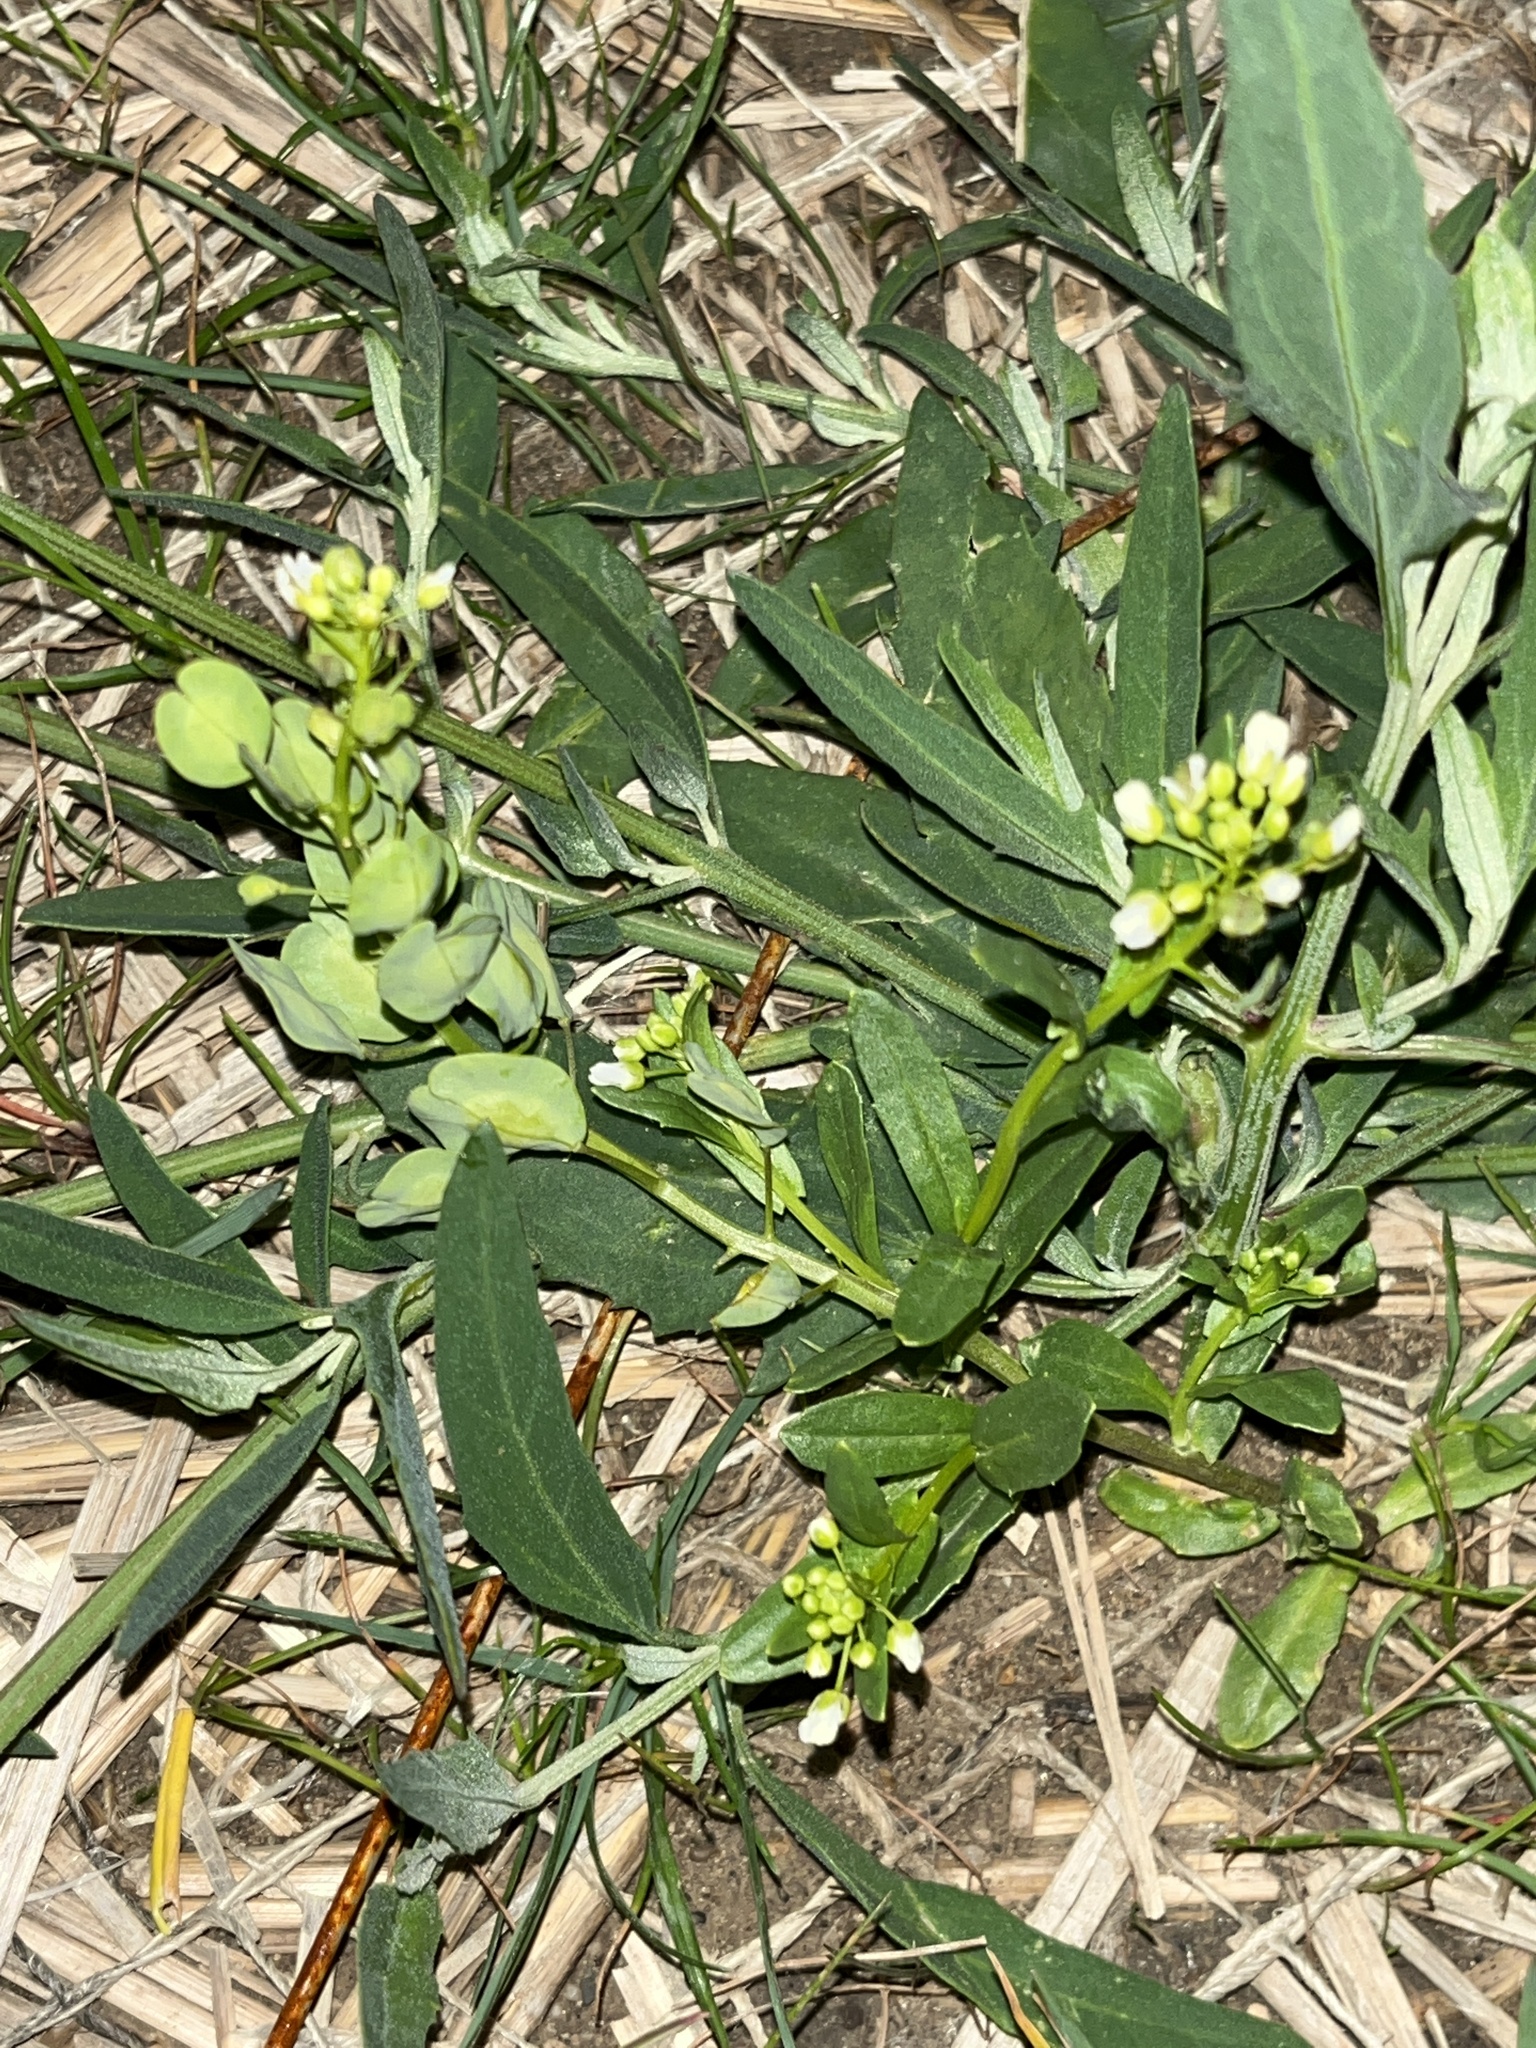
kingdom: Plantae
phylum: Tracheophyta
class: Magnoliopsida
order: Brassicales
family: Brassicaceae
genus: Thlaspi
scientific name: Thlaspi arvense
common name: Field pennycress
